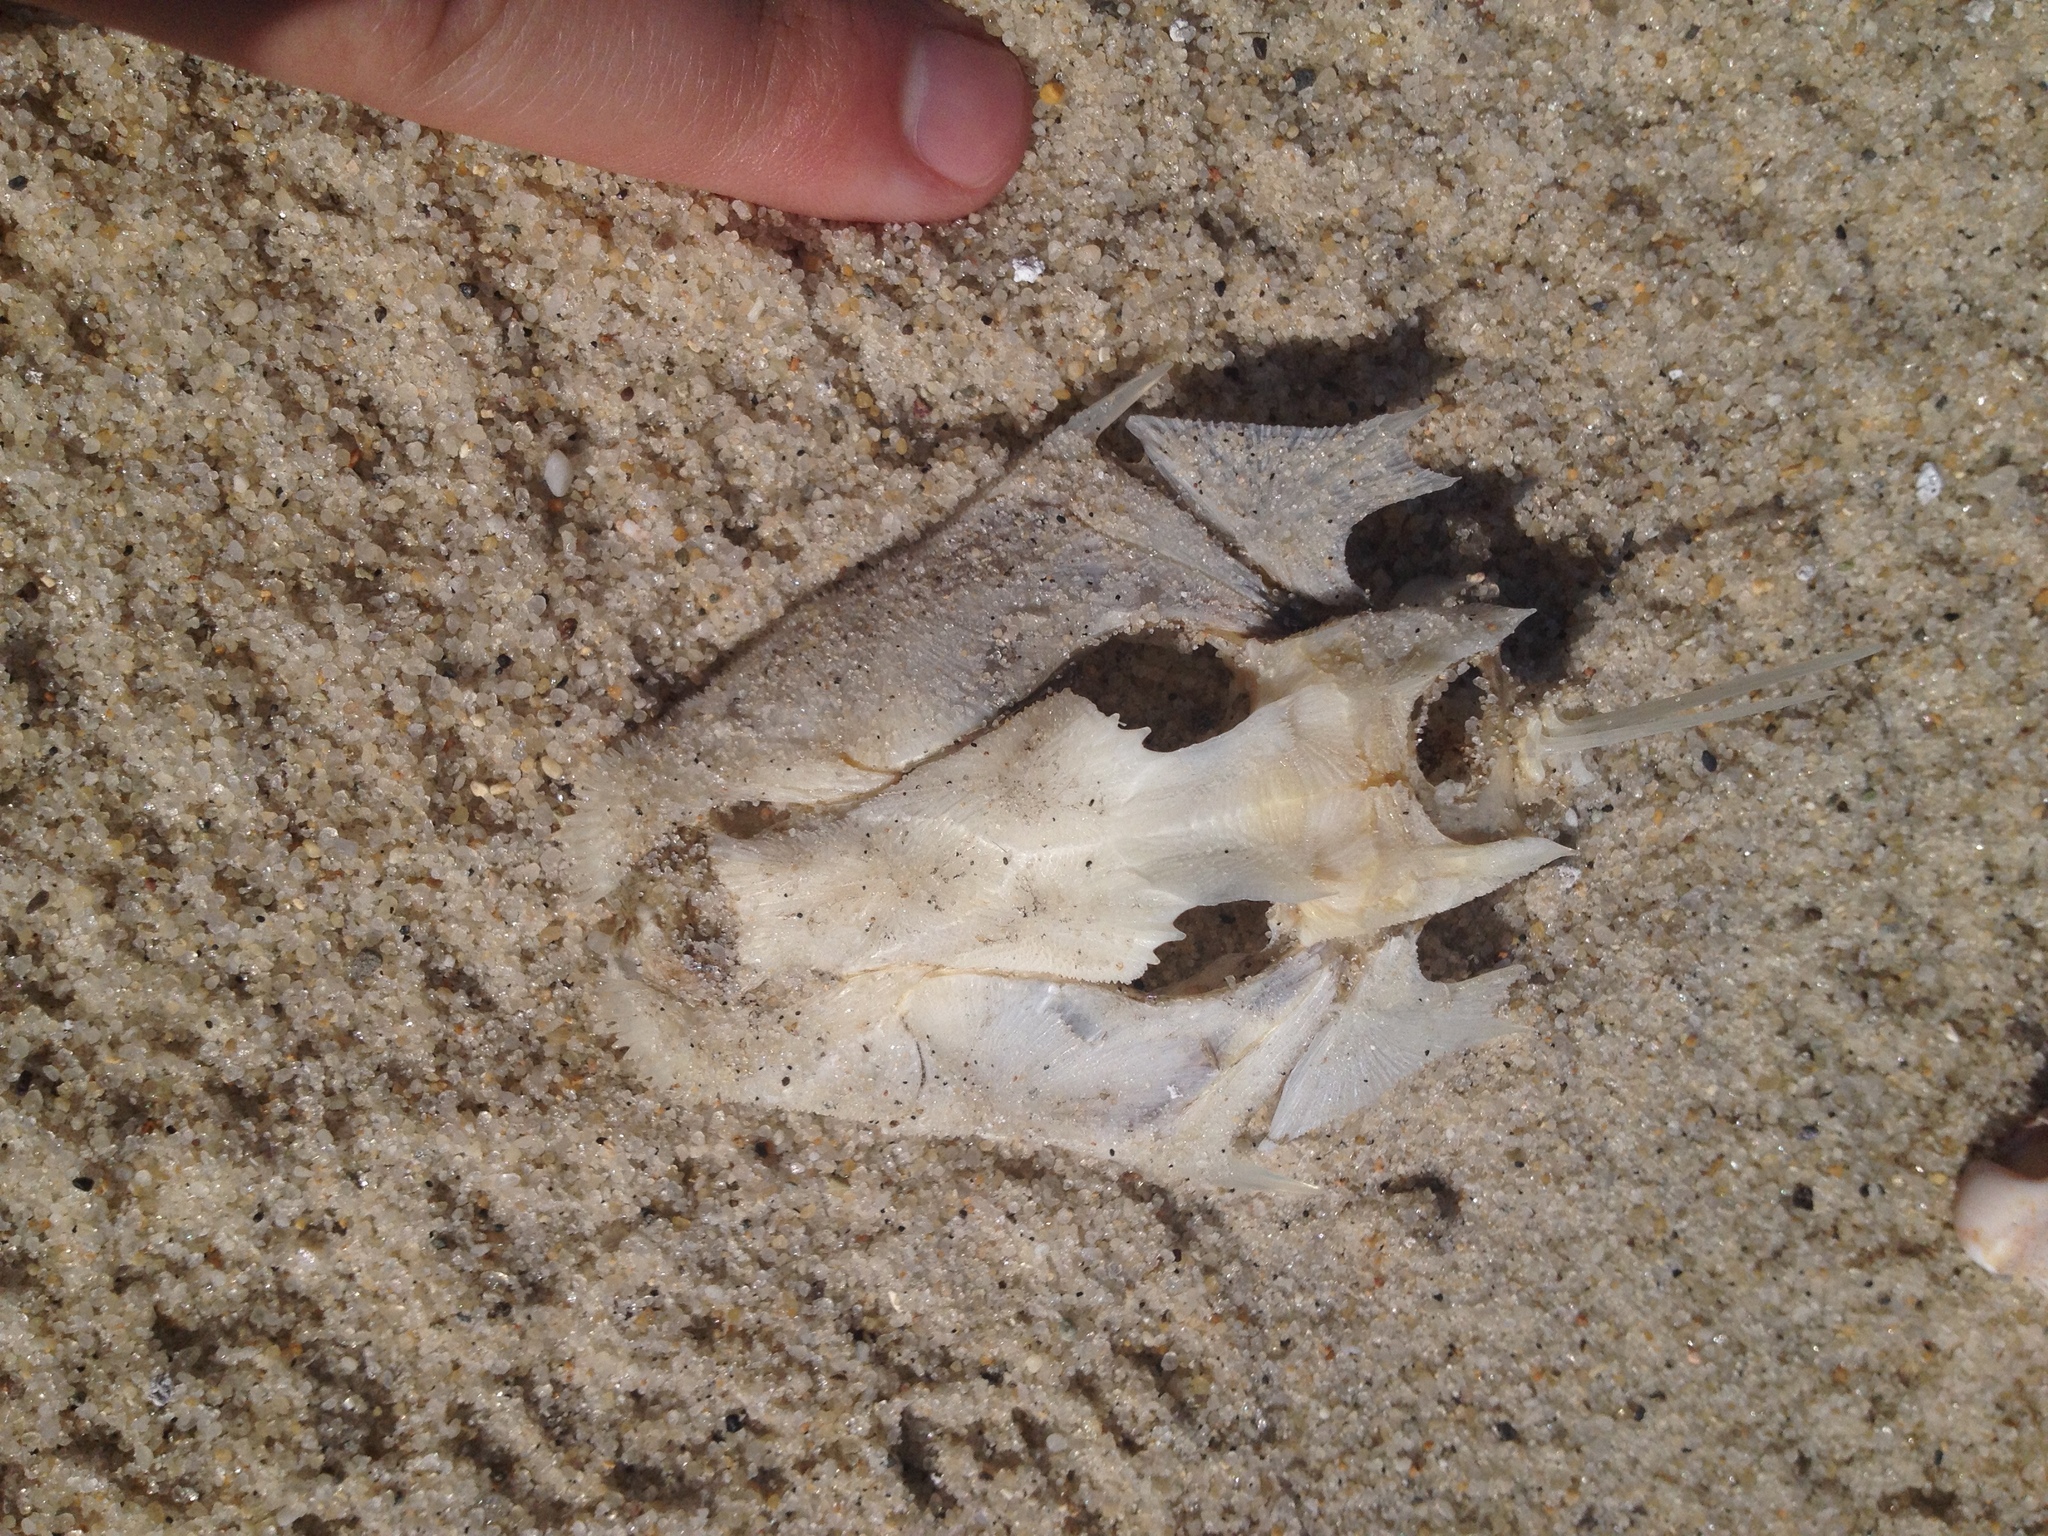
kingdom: Animalia
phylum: Chordata
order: Scorpaeniformes
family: Triglidae
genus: Prionotus
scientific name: Prionotus
